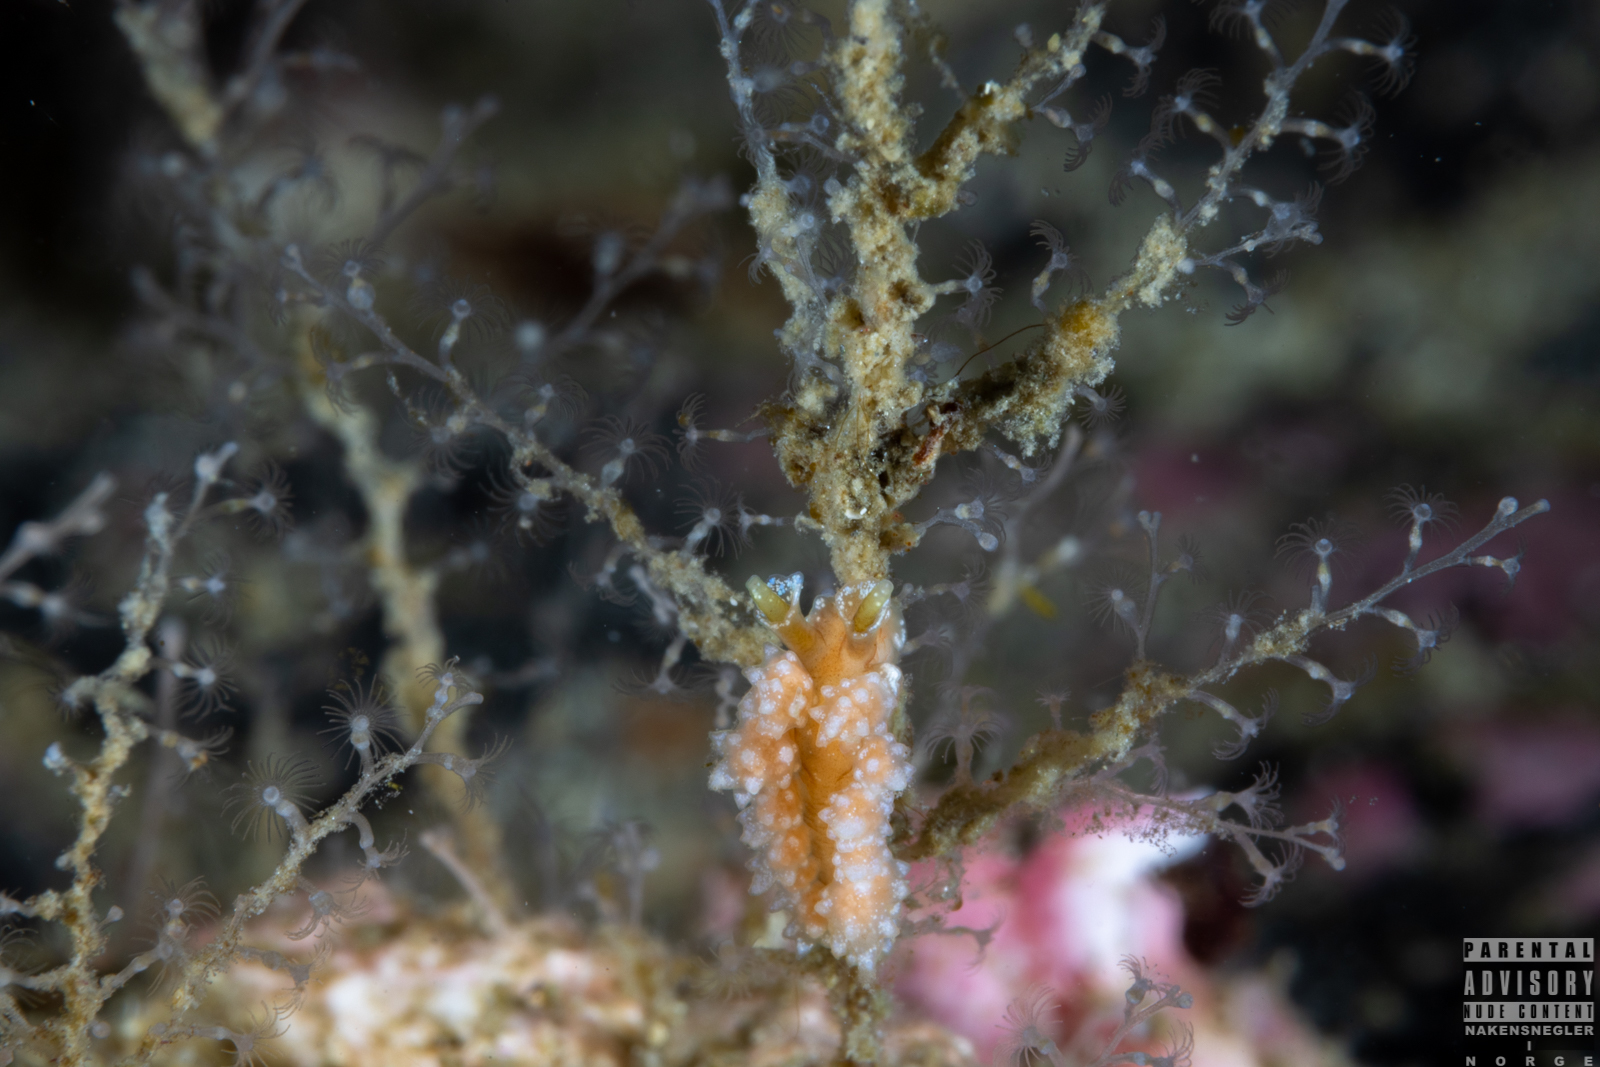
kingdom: Animalia
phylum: Mollusca
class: Gastropoda
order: Nudibranchia
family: Dotidae
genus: Doto
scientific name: Doto fragilis
